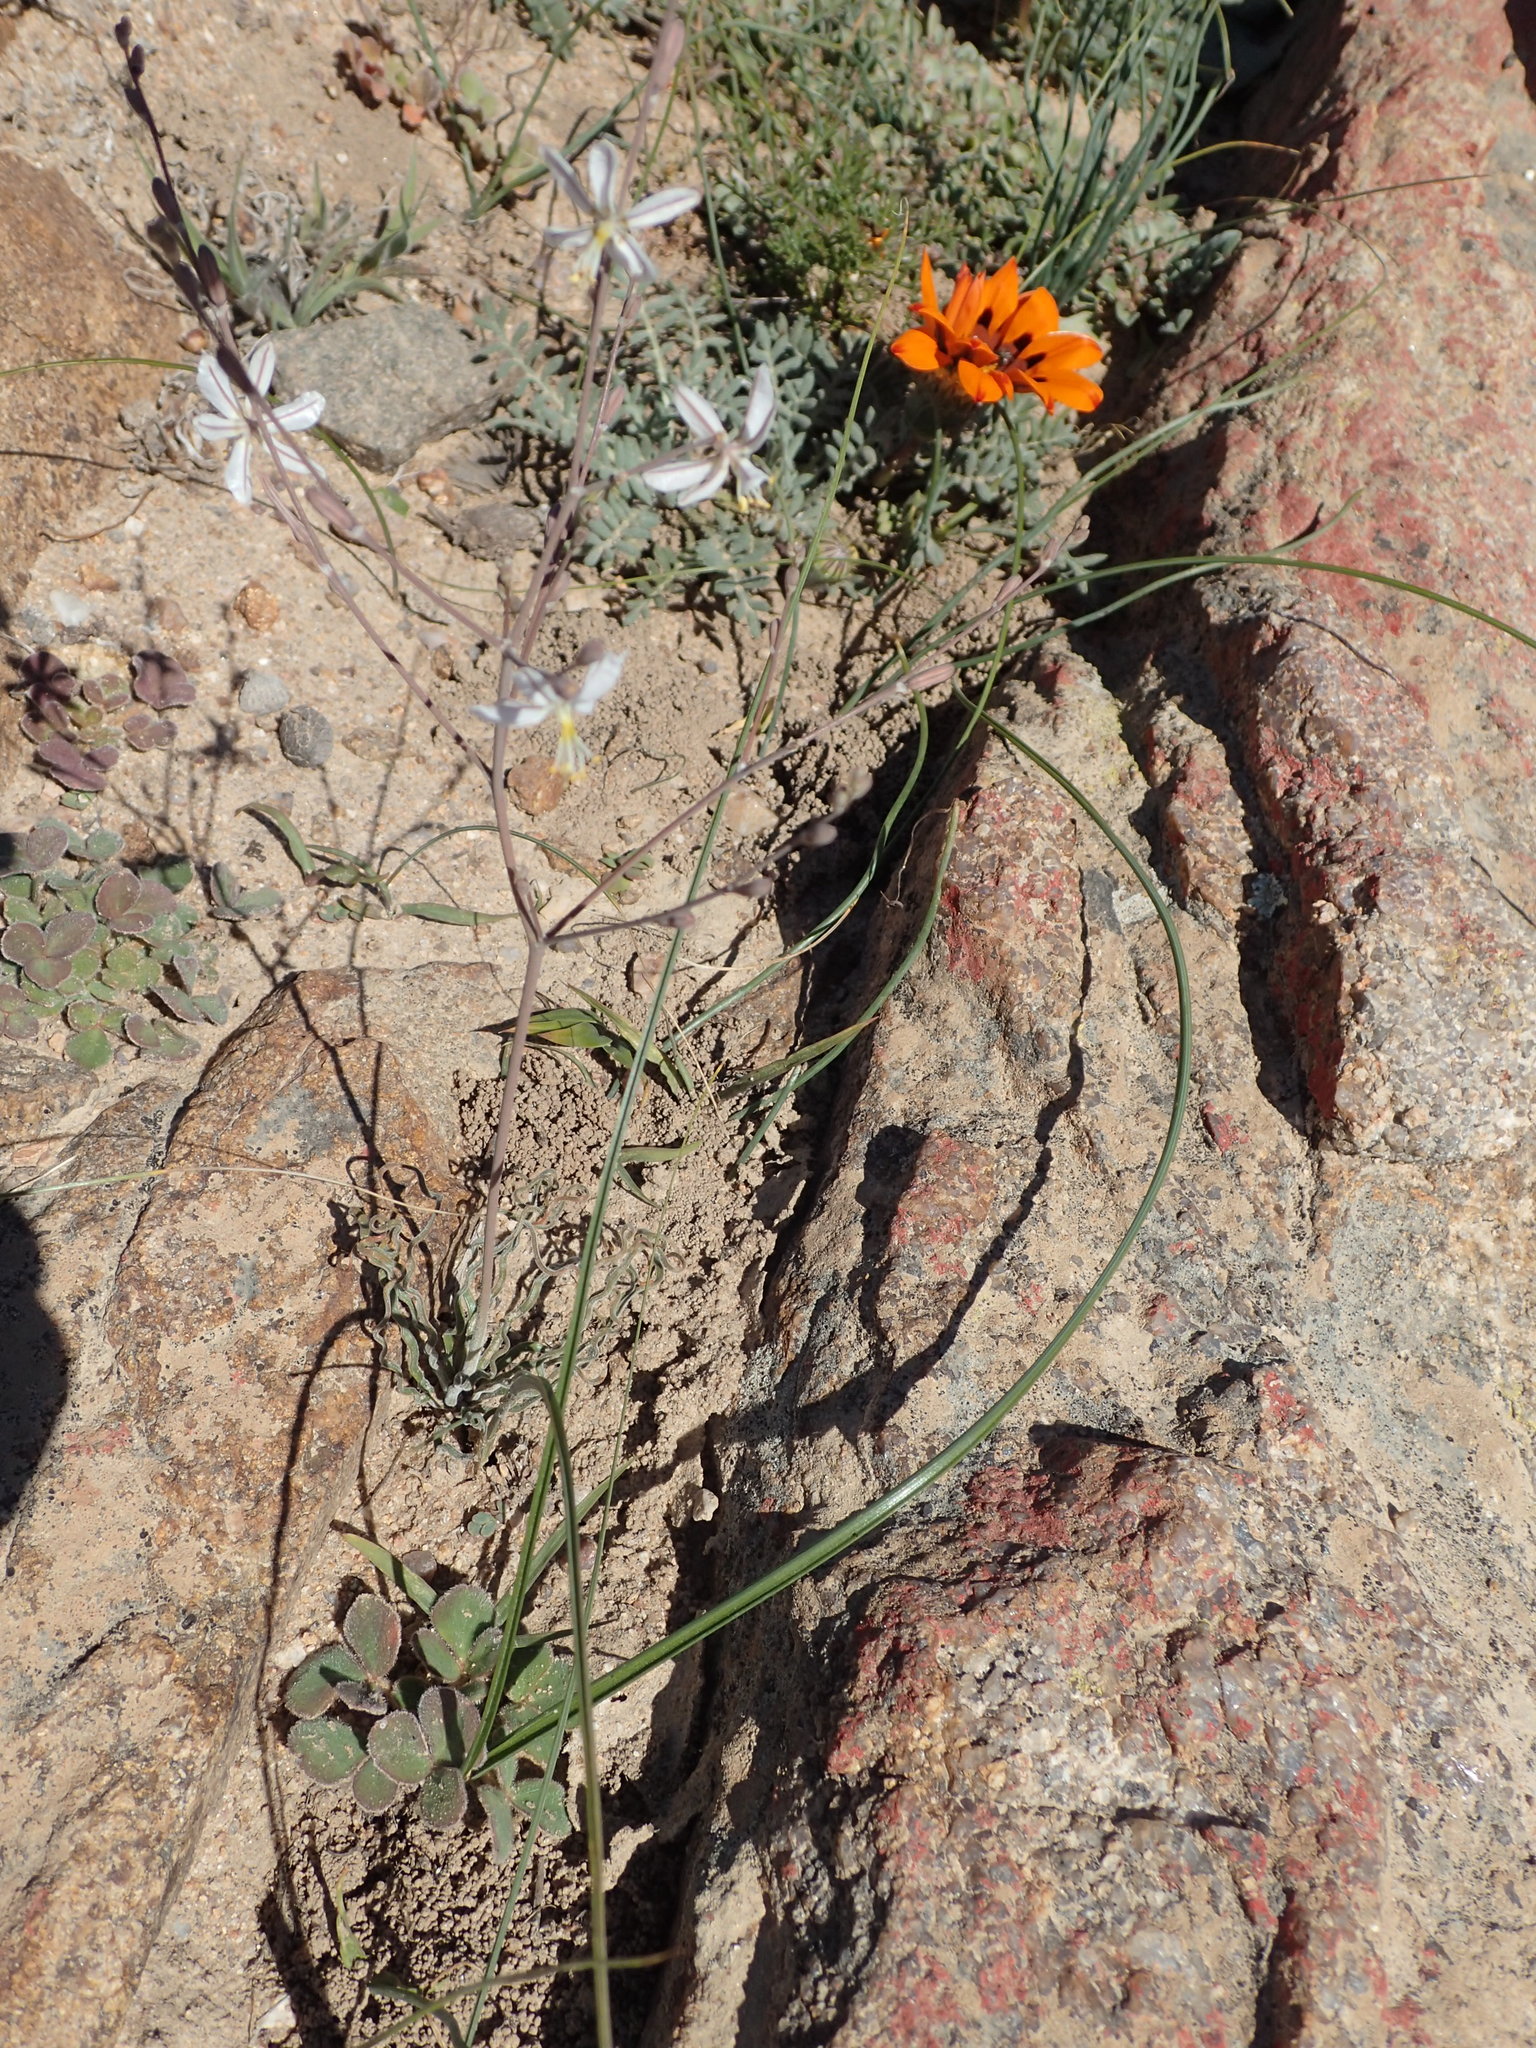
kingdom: Plantae
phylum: Tracheophyta
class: Magnoliopsida
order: Asterales
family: Asteraceae
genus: Gazania
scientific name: Gazania leiopoda
